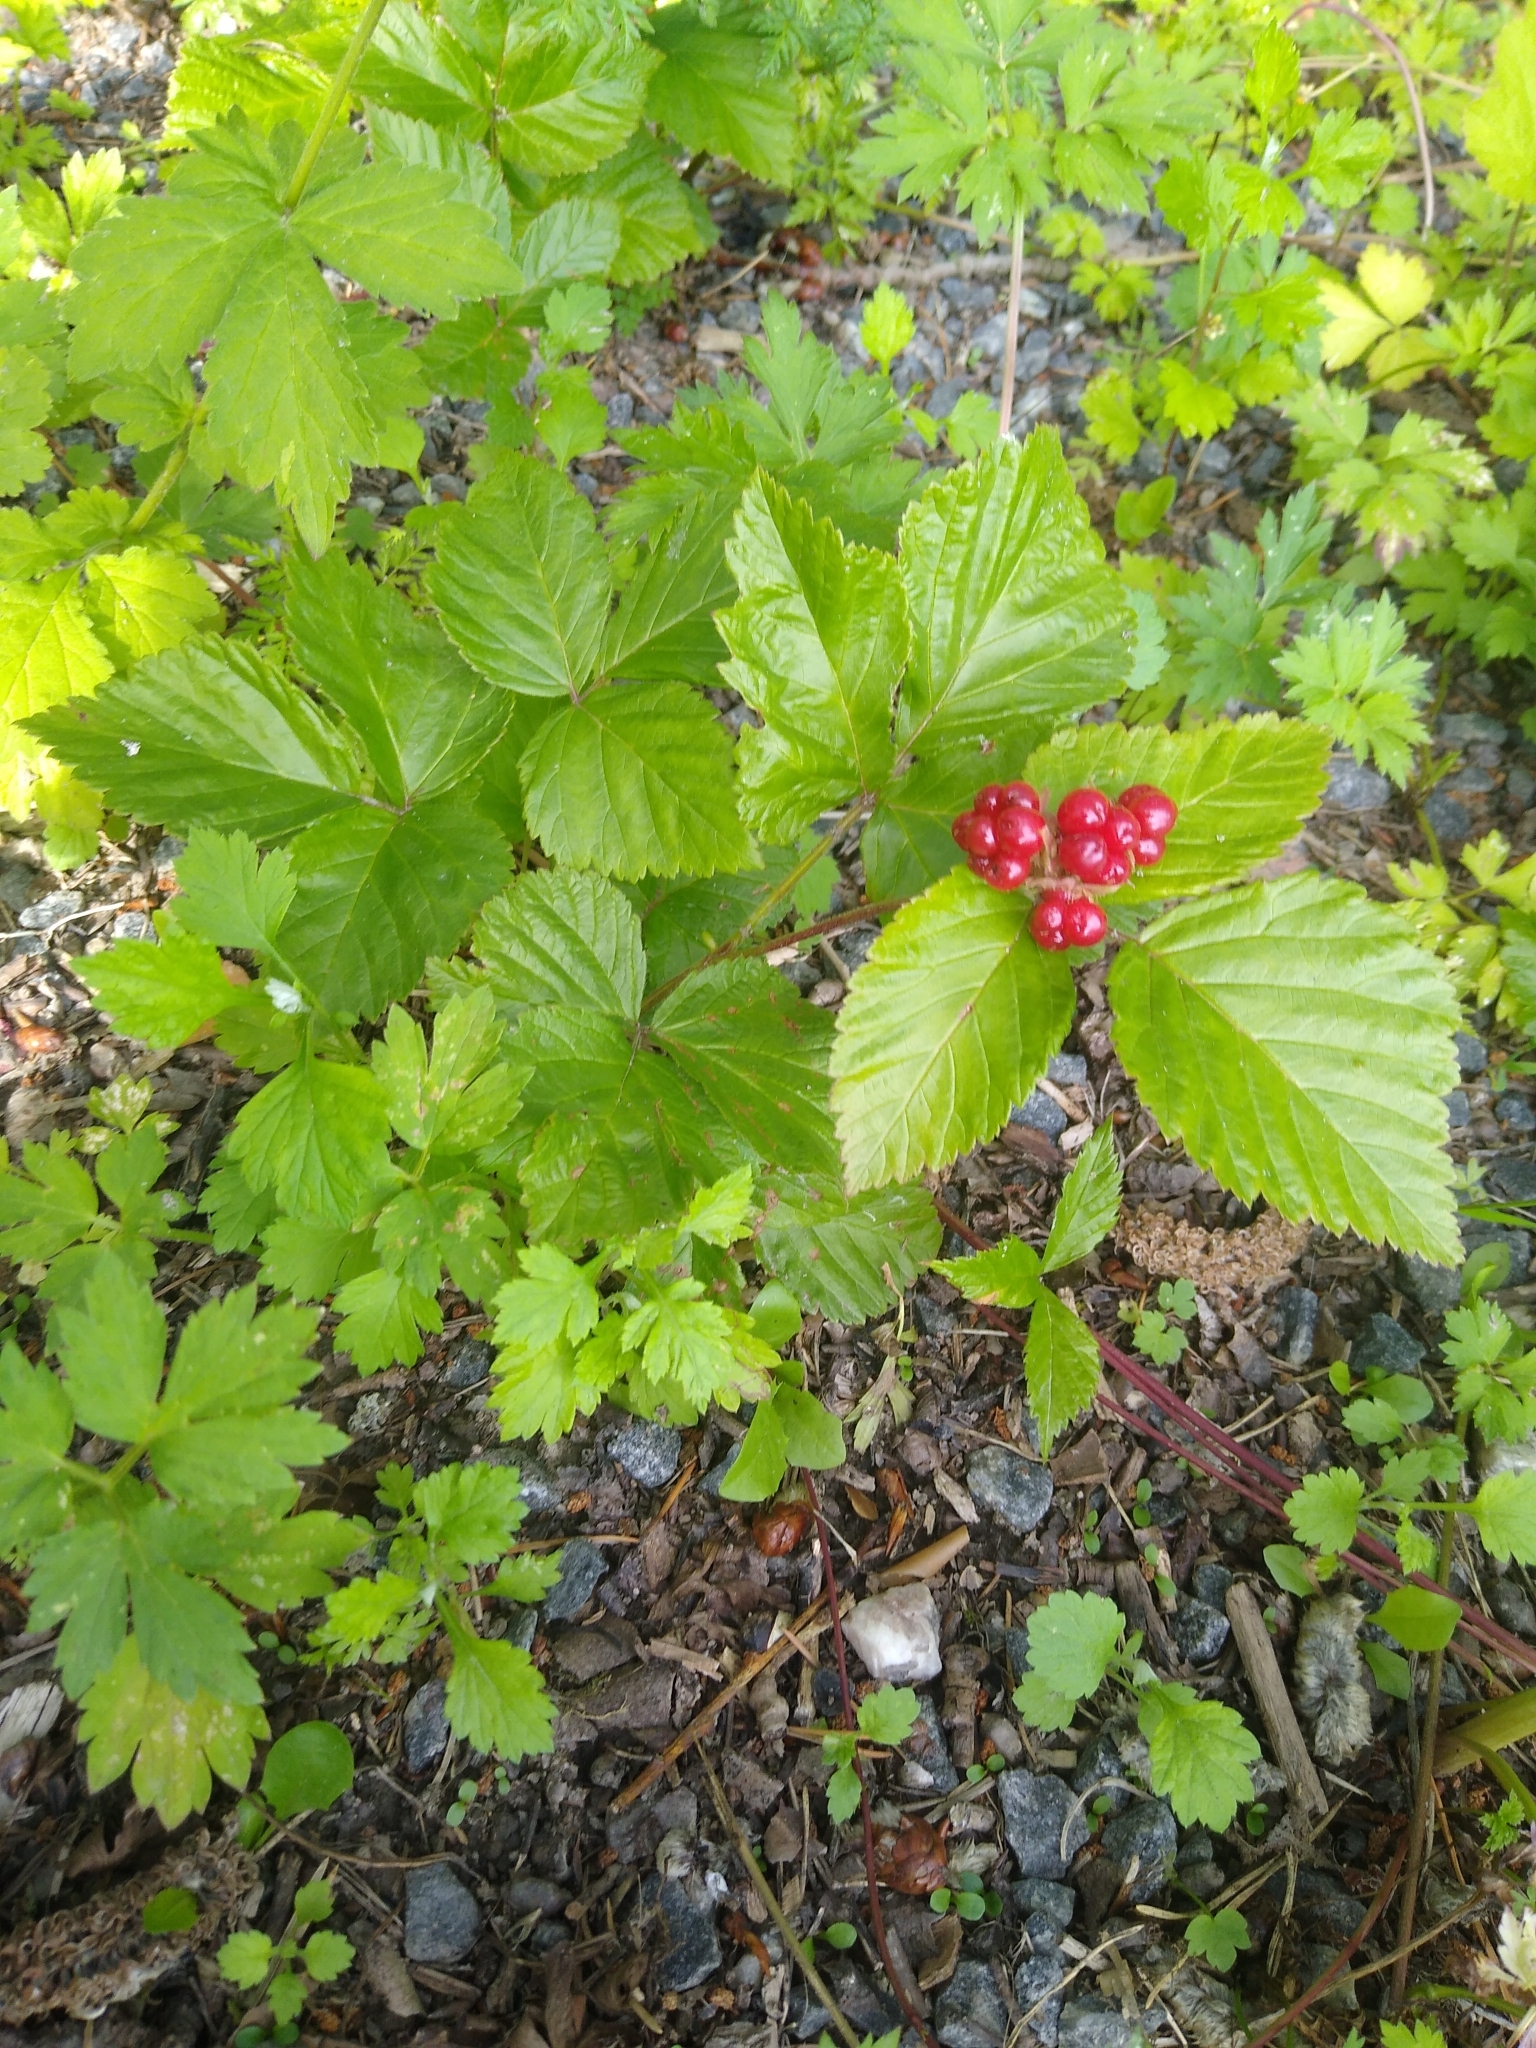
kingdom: Plantae
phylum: Tracheophyta
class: Magnoliopsida
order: Rosales
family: Rosaceae
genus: Rubus
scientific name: Rubus saxatilis
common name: Stone bramble
